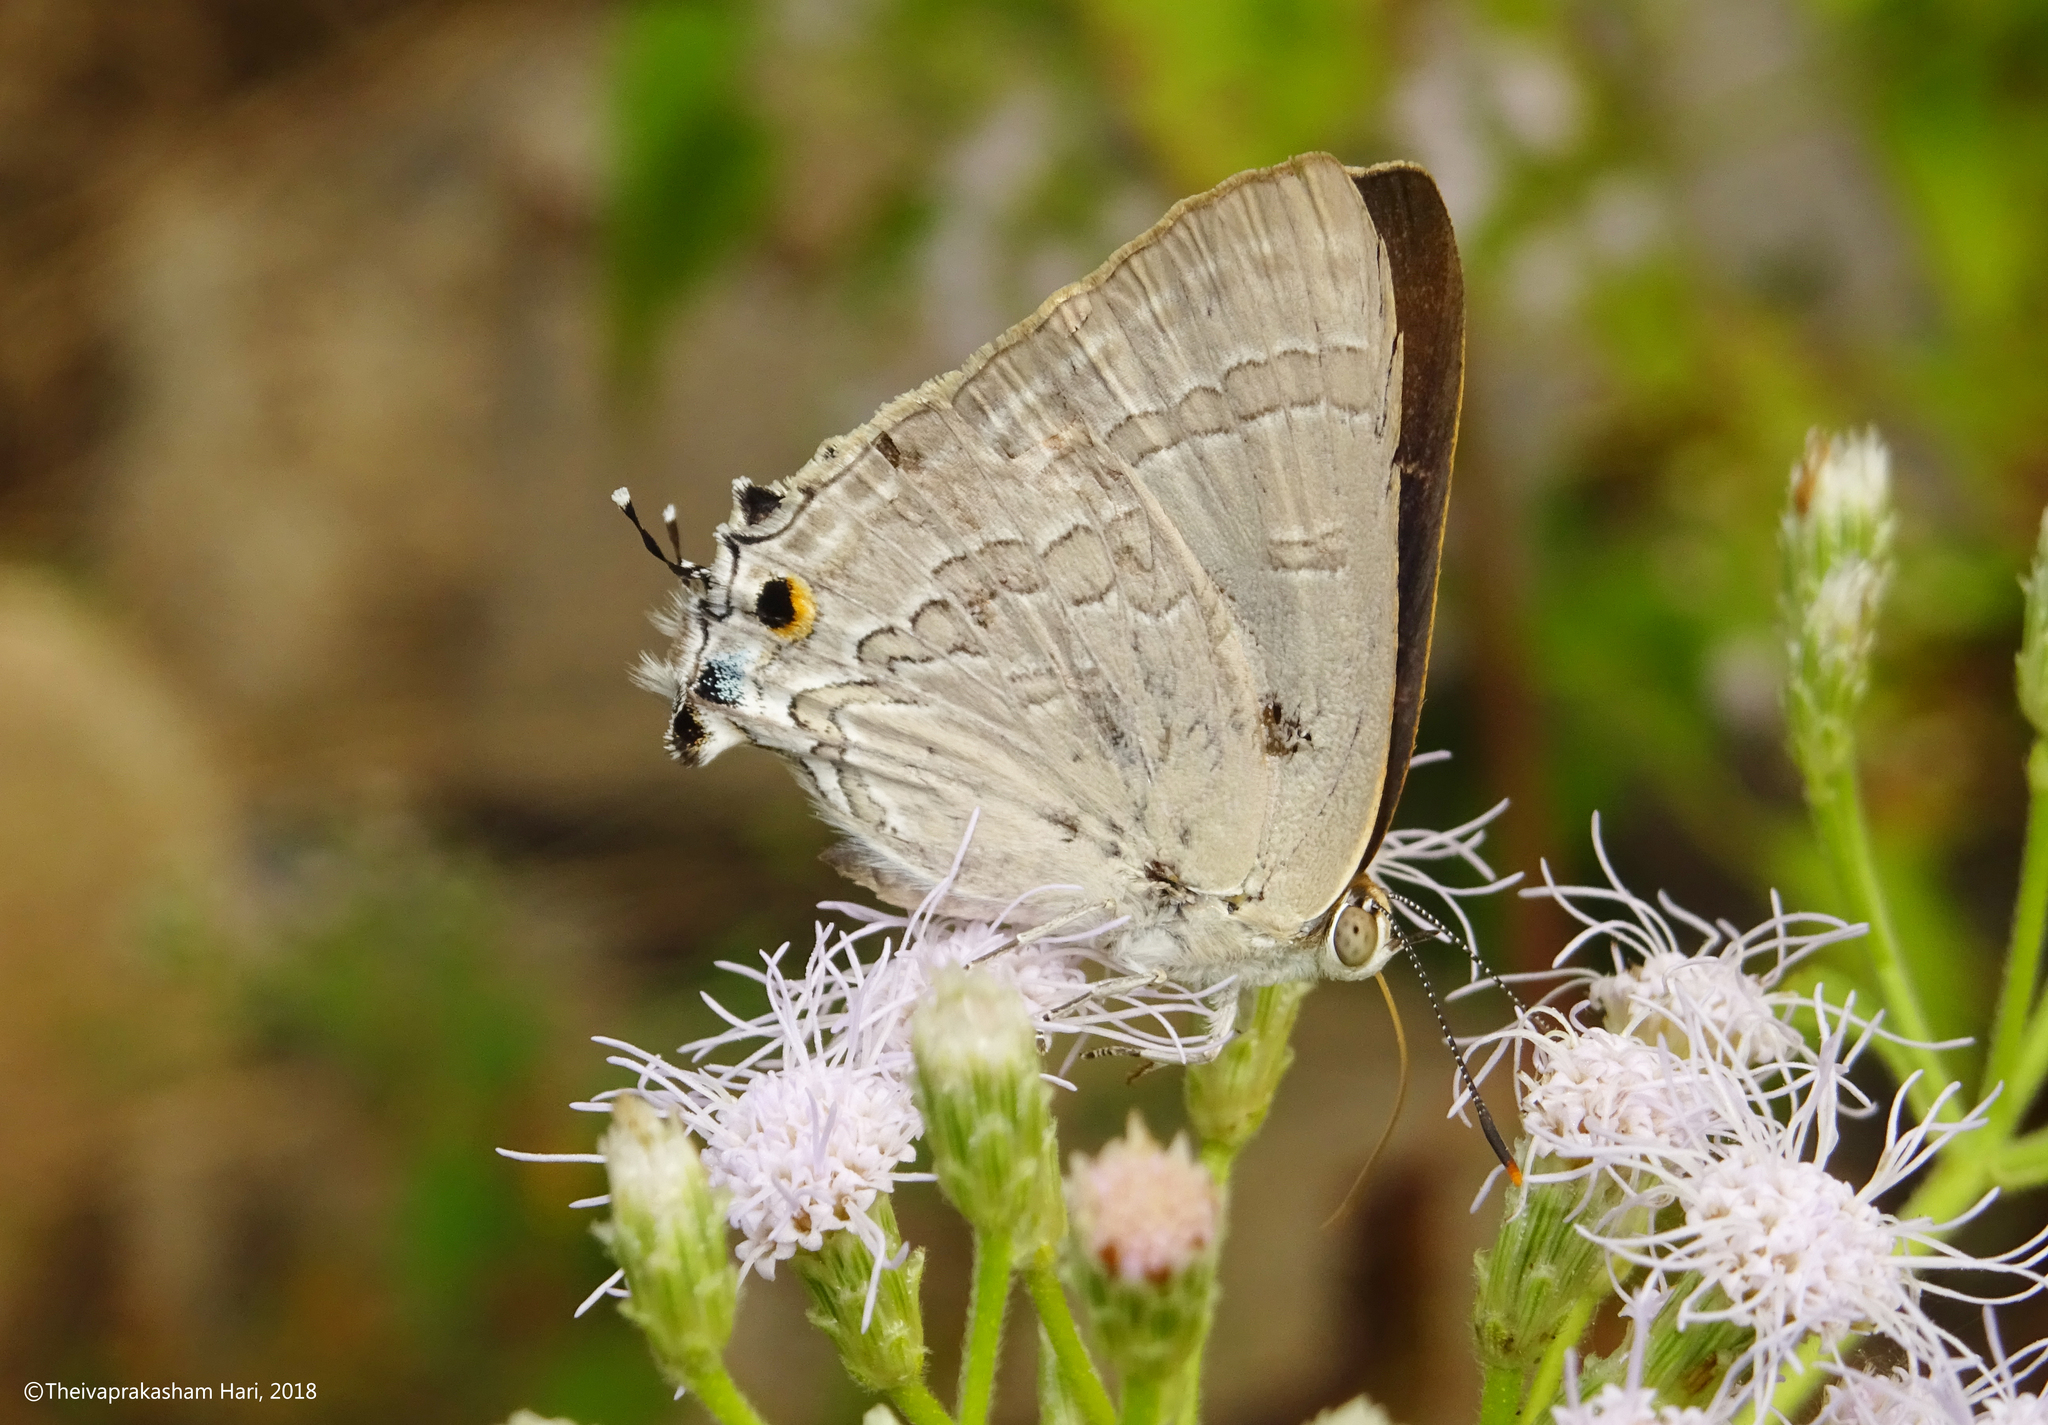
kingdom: Animalia
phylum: Arthropoda
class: Insecta
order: Lepidoptera
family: Lycaenidae
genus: Deudorix
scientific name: Deudorix
